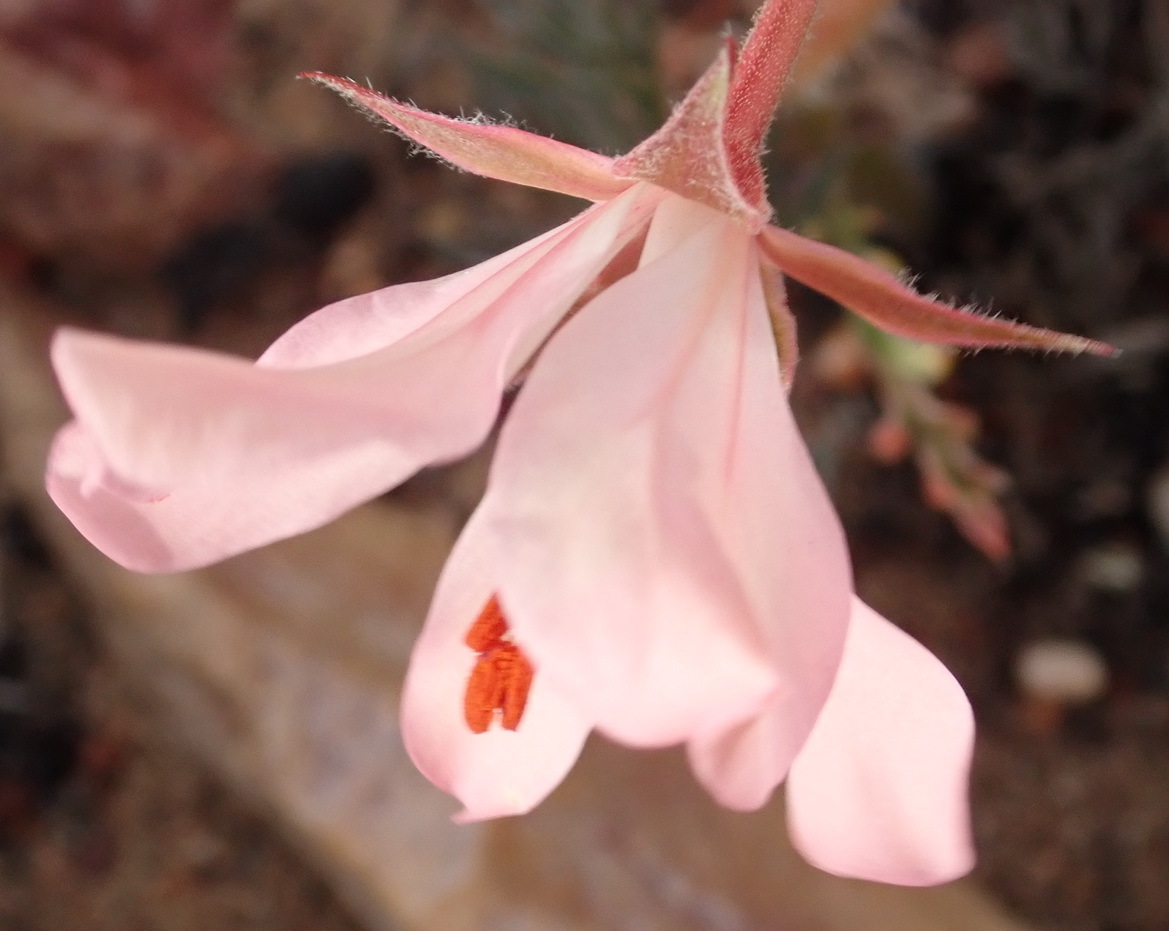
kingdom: Plantae
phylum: Tracheophyta
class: Magnoliopsida
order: Geraniales
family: Geraniaceae
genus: Pelargonium
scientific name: Pelargonium carneum
